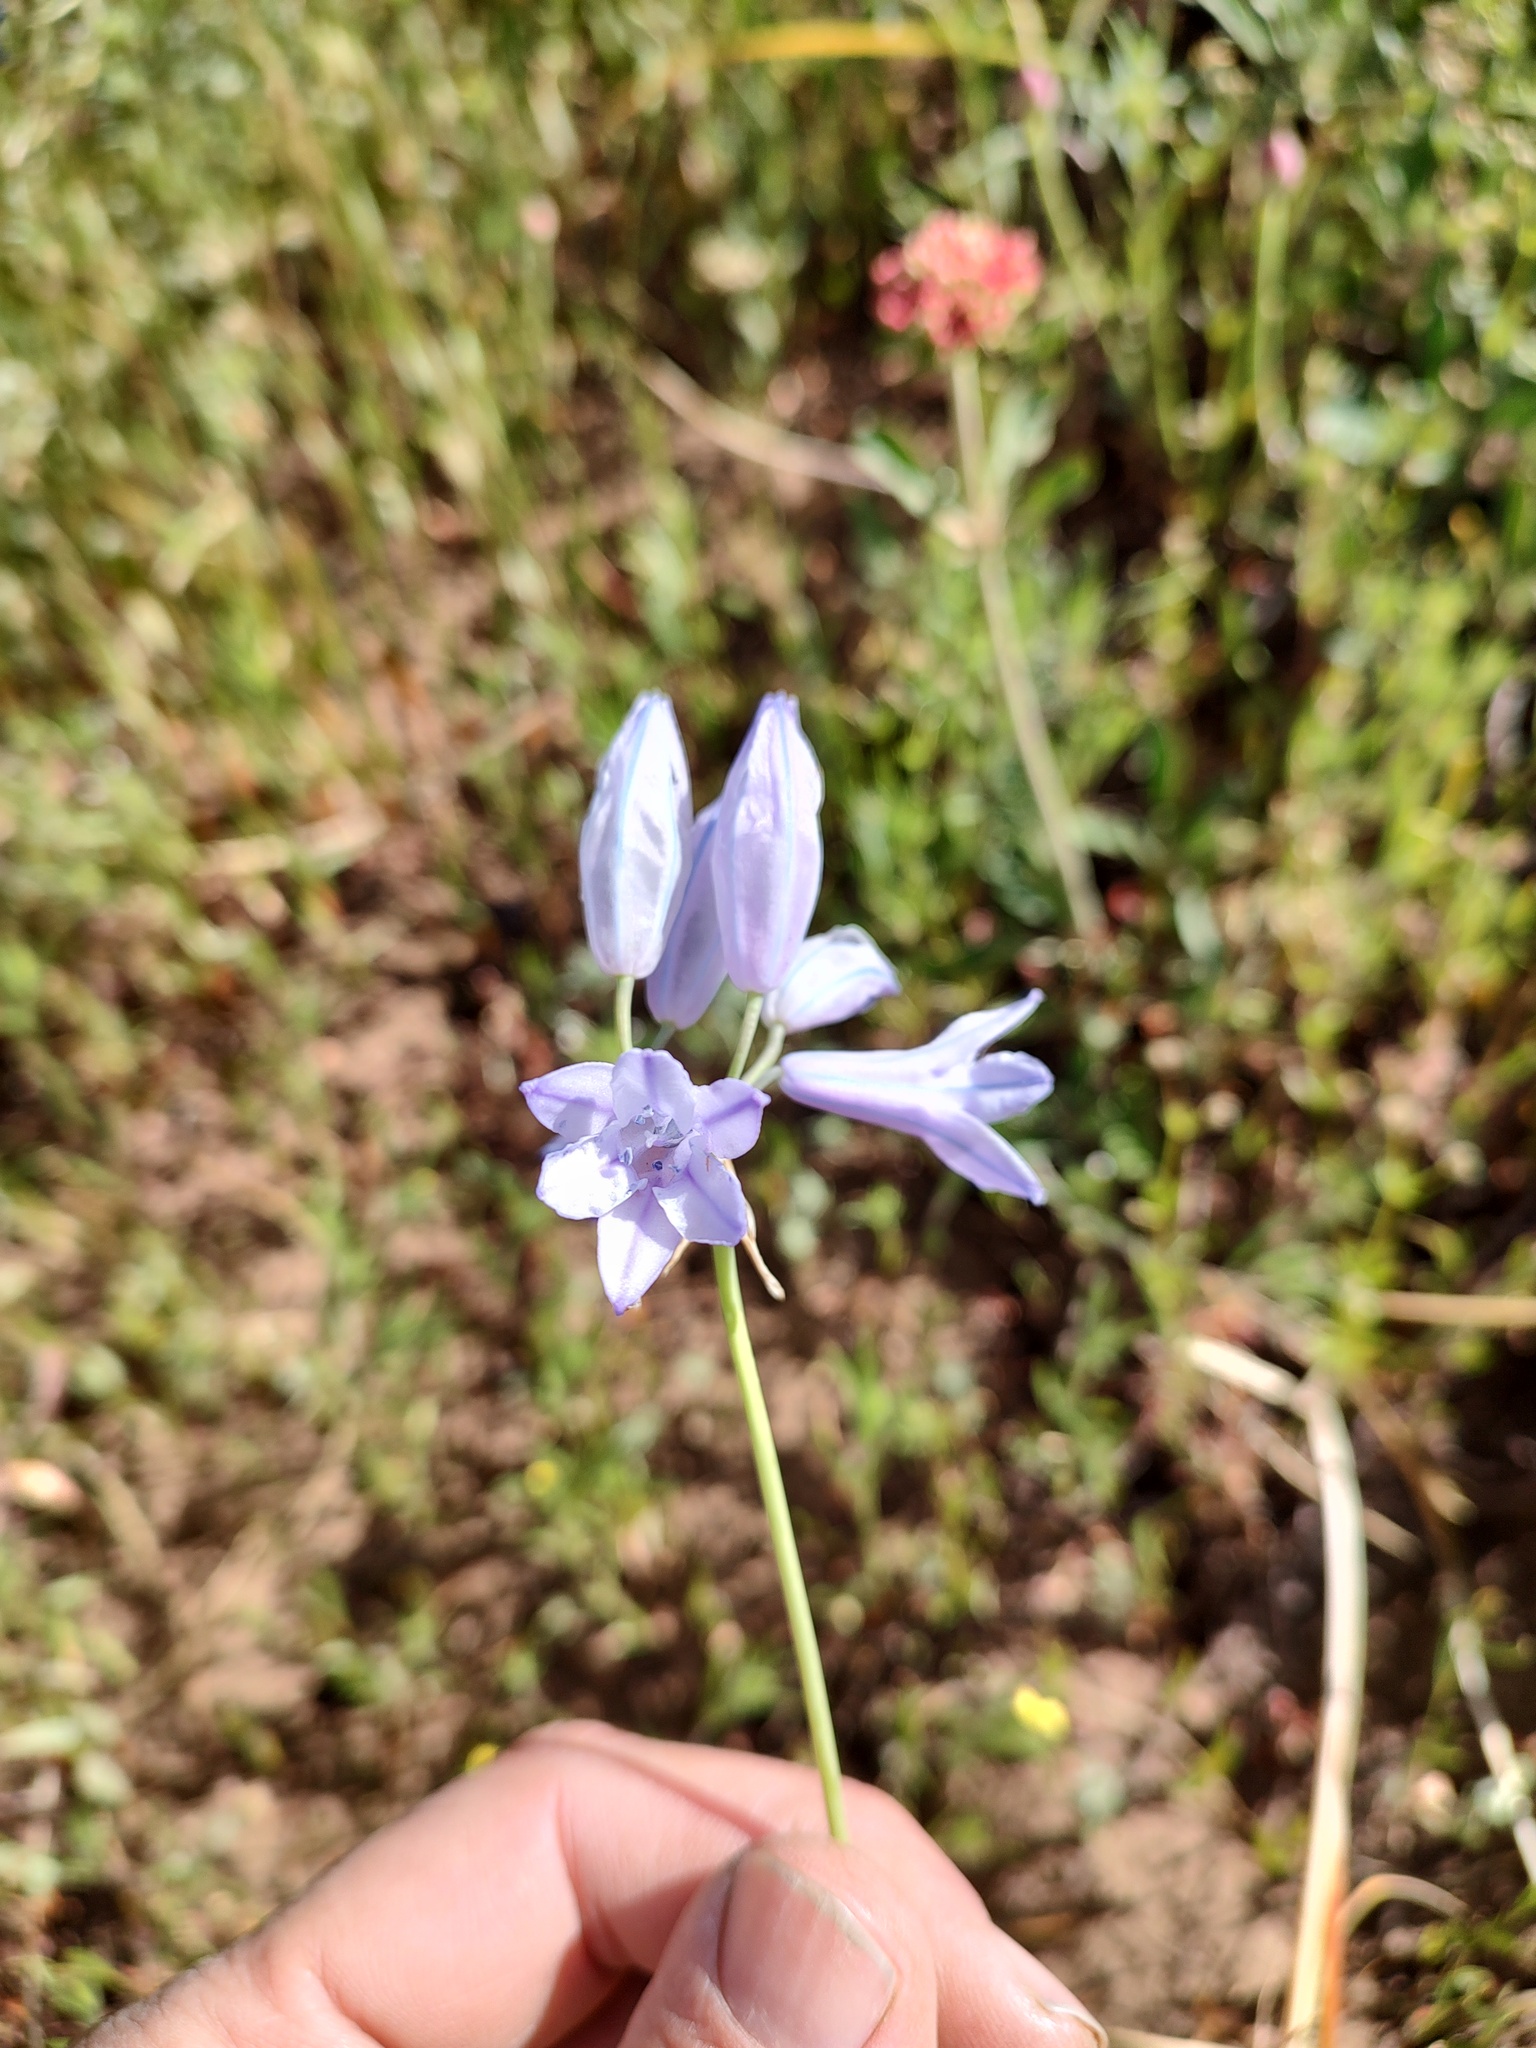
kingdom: Plantae
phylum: Tracheophyta
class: Liliopsida
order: Asparagales
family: Asparagaceae
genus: Triteleia
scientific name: Triteleia grandiflora
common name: Wild hyacinth
